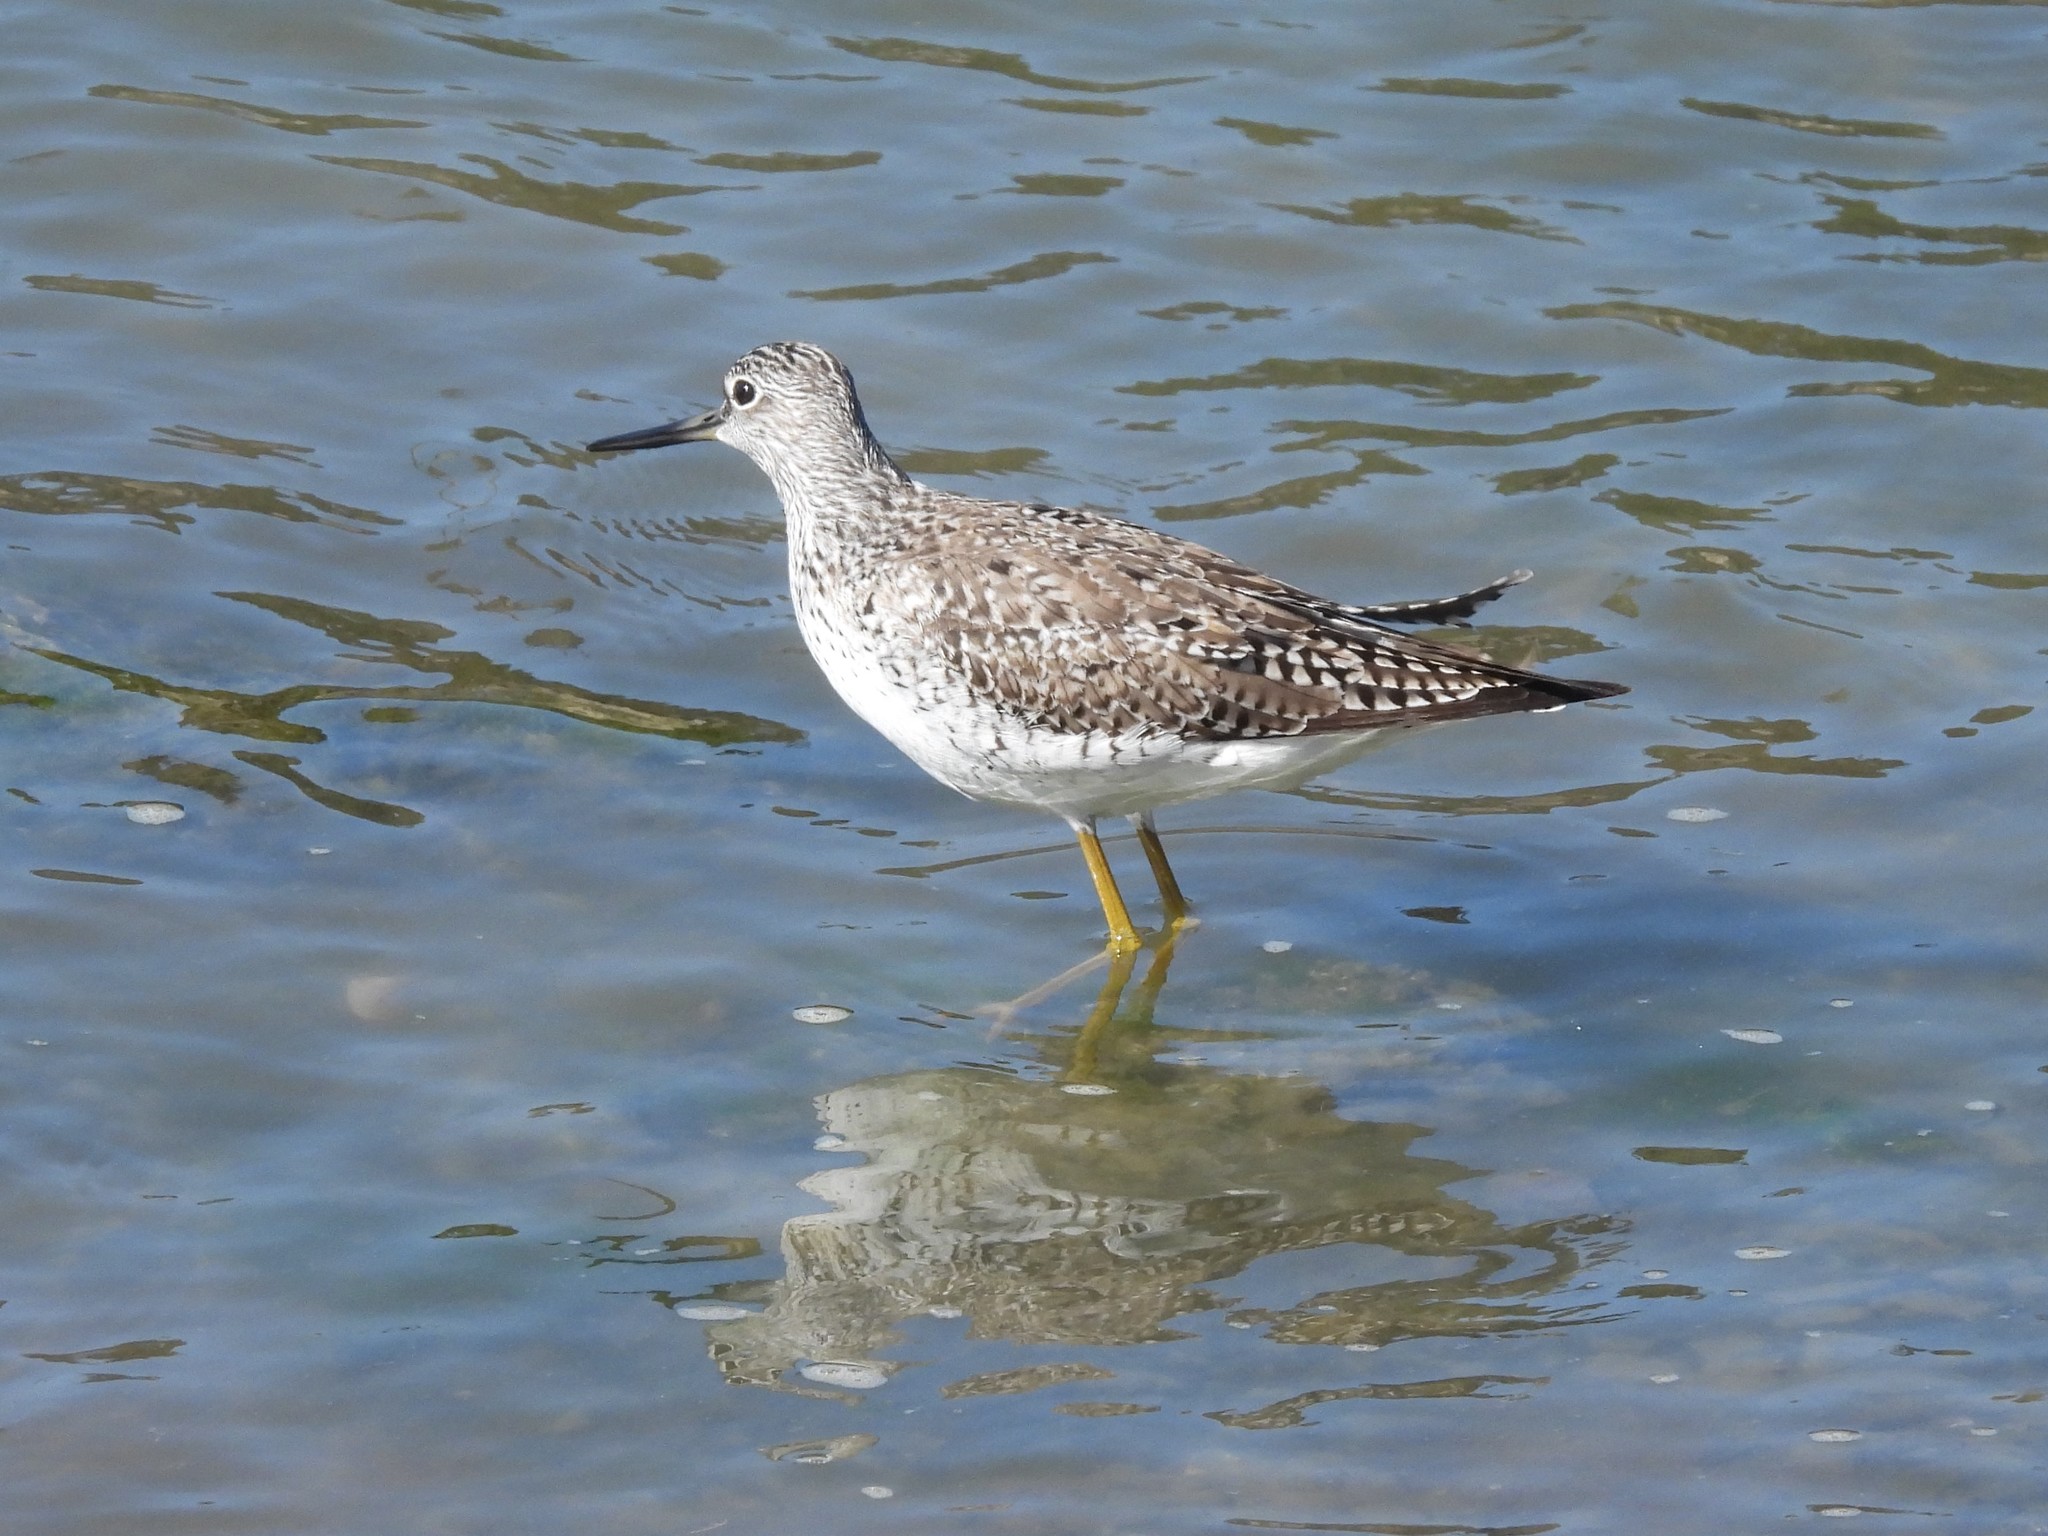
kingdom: Animalia
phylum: Chordata
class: Aves
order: Charadriiformes
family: Scolopacidae
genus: Tringa
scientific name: Tringa melanoleuca
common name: Greater yellowlegs
